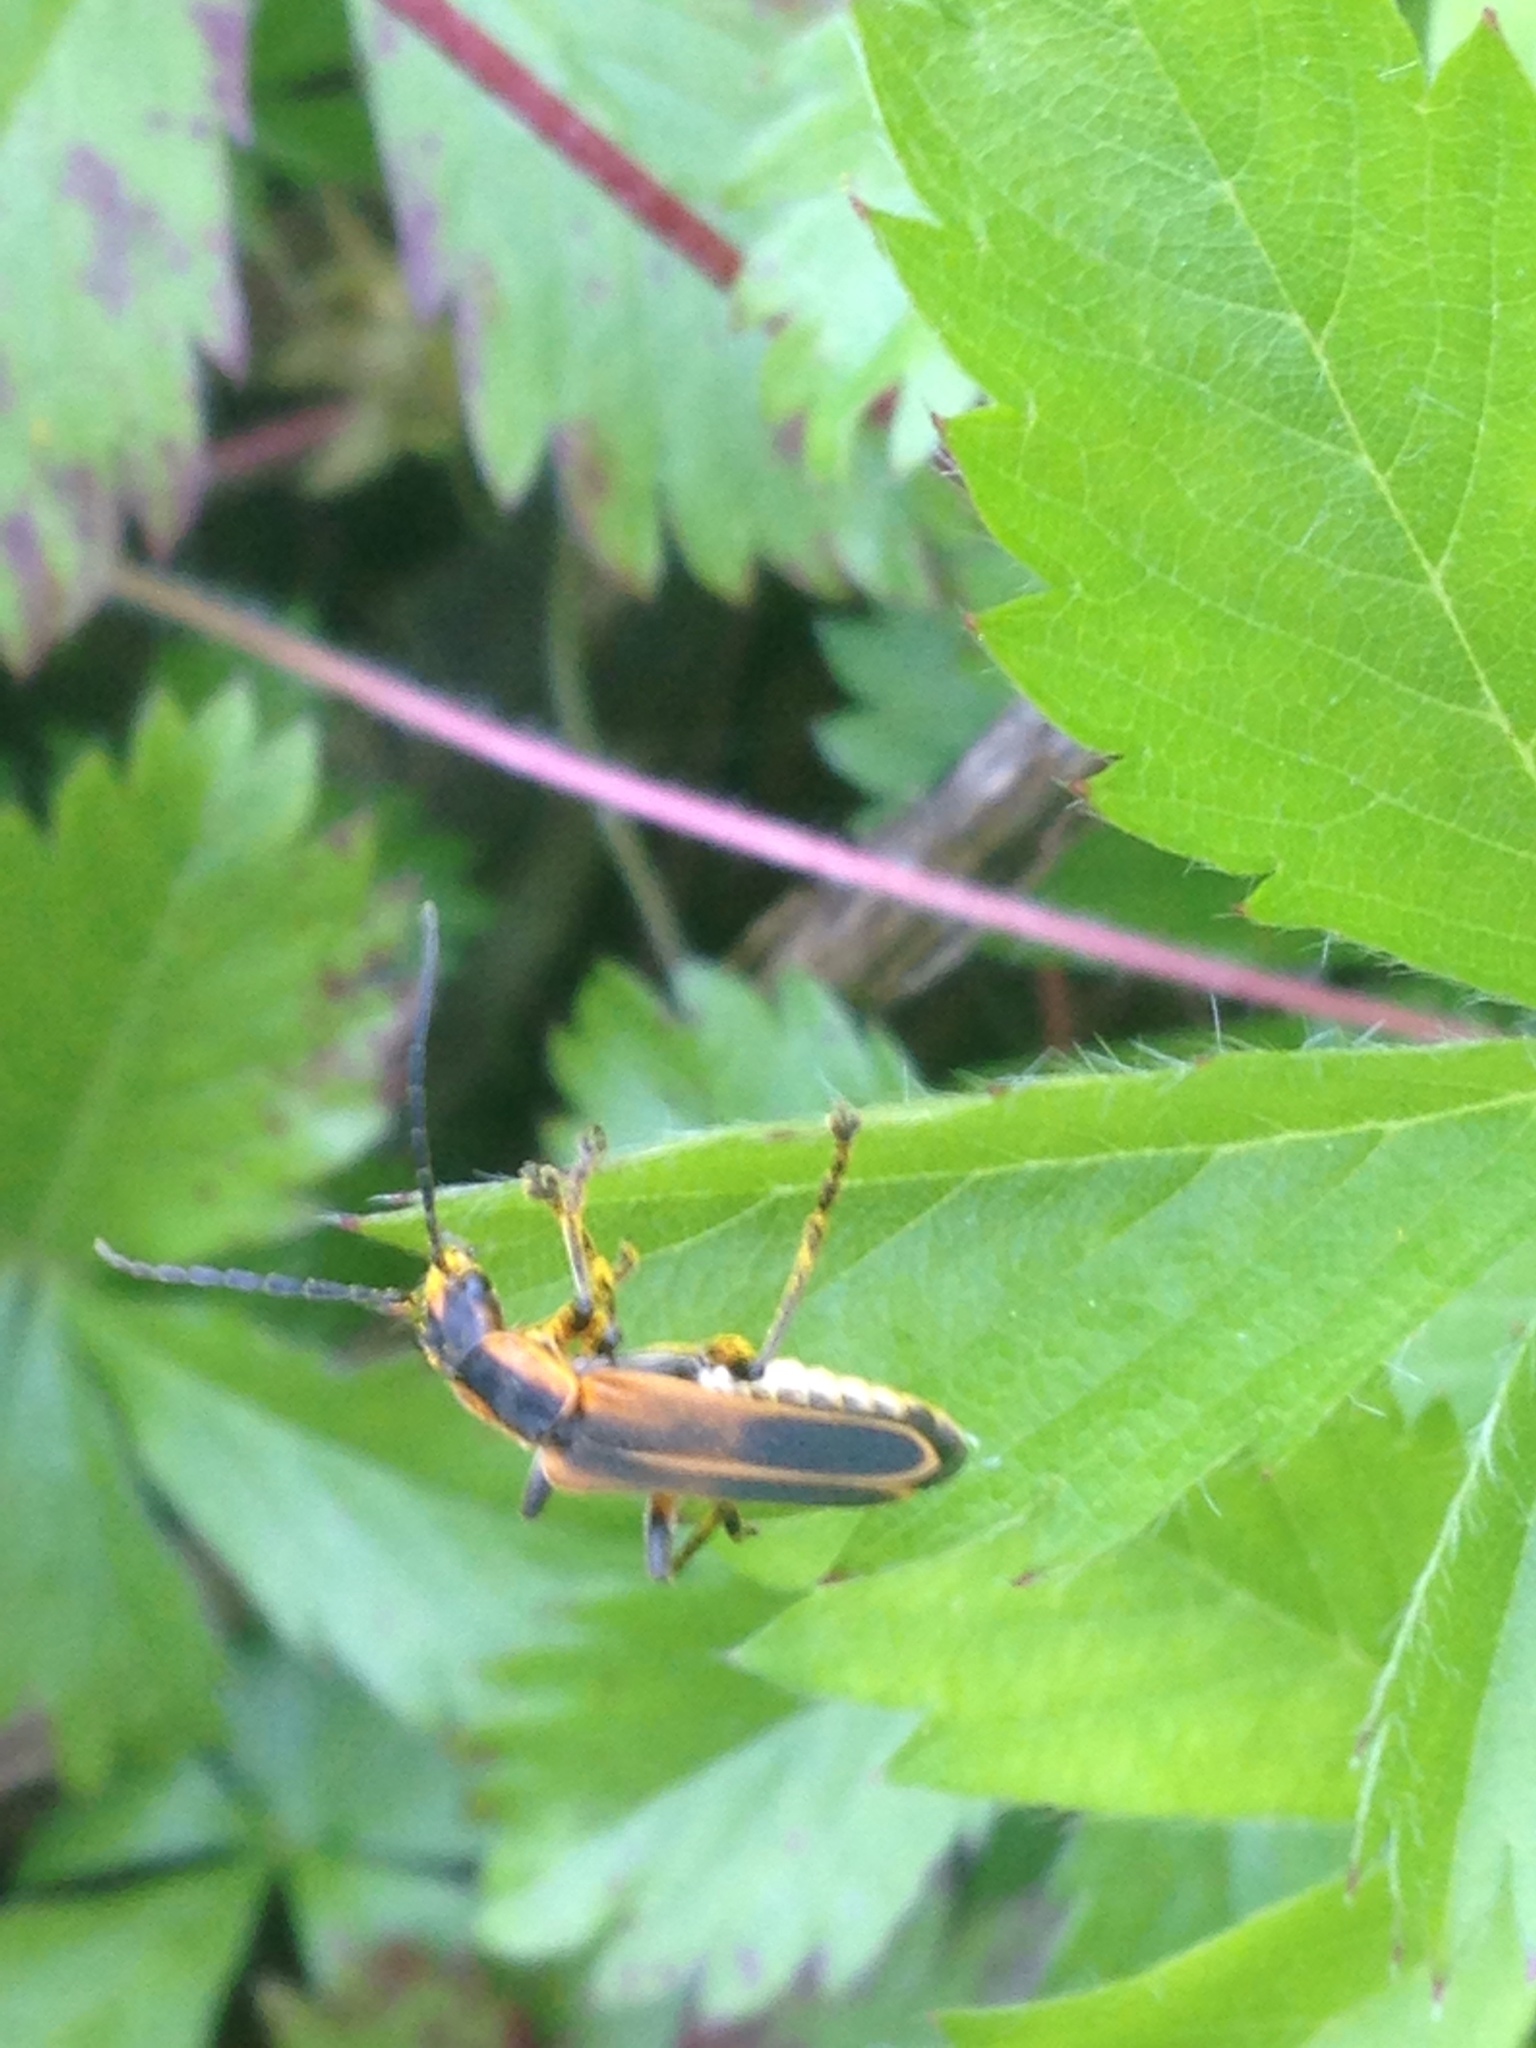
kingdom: Animalia
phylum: Arthropoda
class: Insecta
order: Coleoptera
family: Cantharidae
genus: Chauliognathus
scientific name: Chauliognathus marginatus
